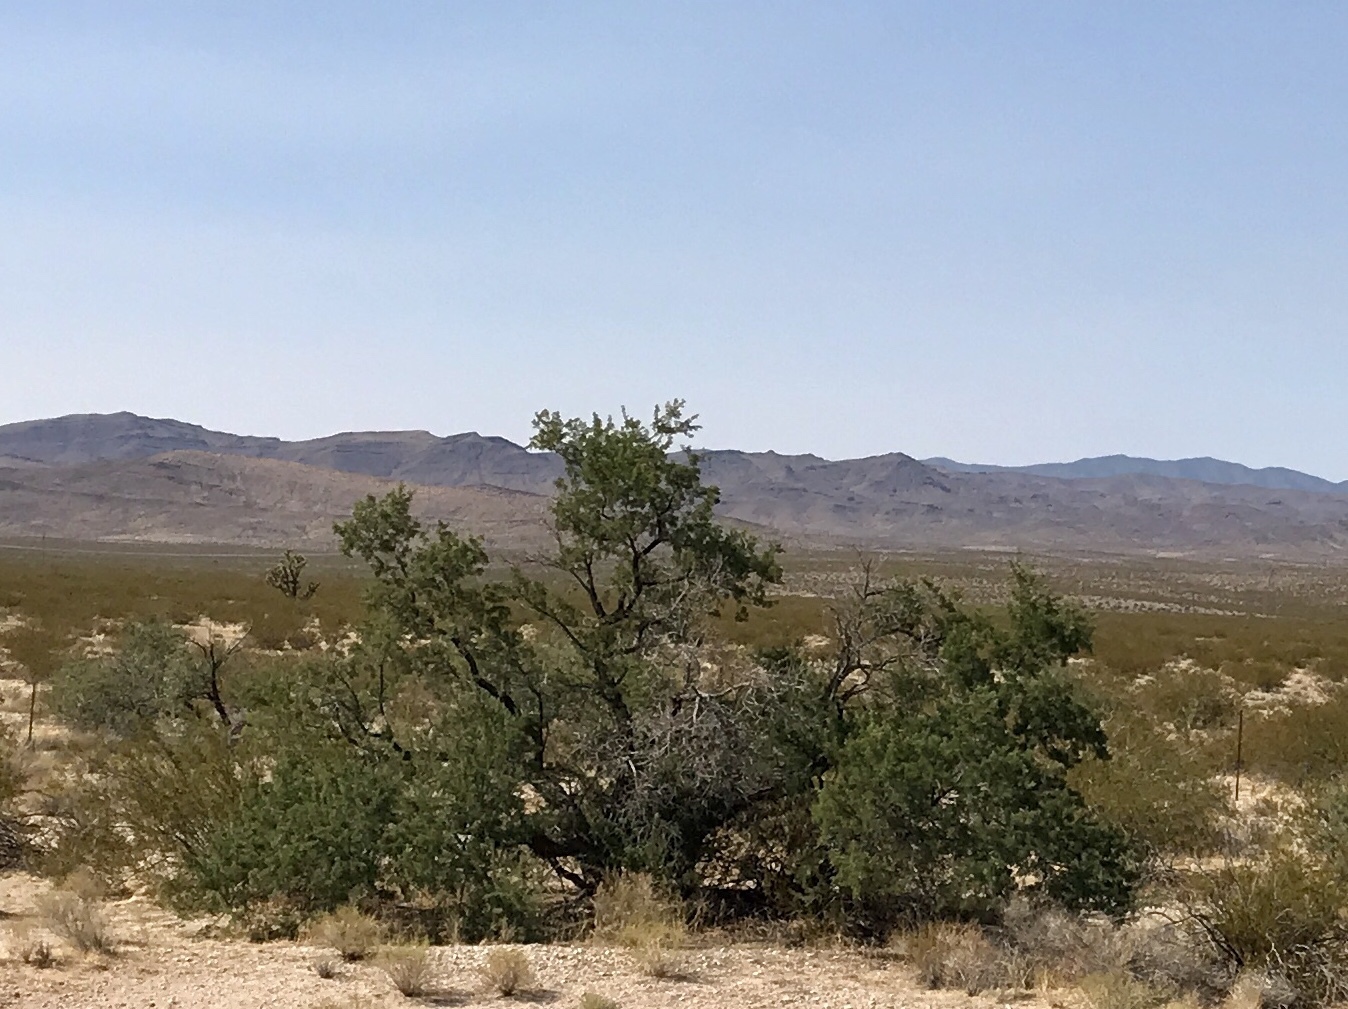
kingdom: Plantae
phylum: Tracheophyta
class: Magnoliopsida
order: Fabales
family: Fabaceae
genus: Senegalia
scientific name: Senegalia greggii
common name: Texas-mimosa
